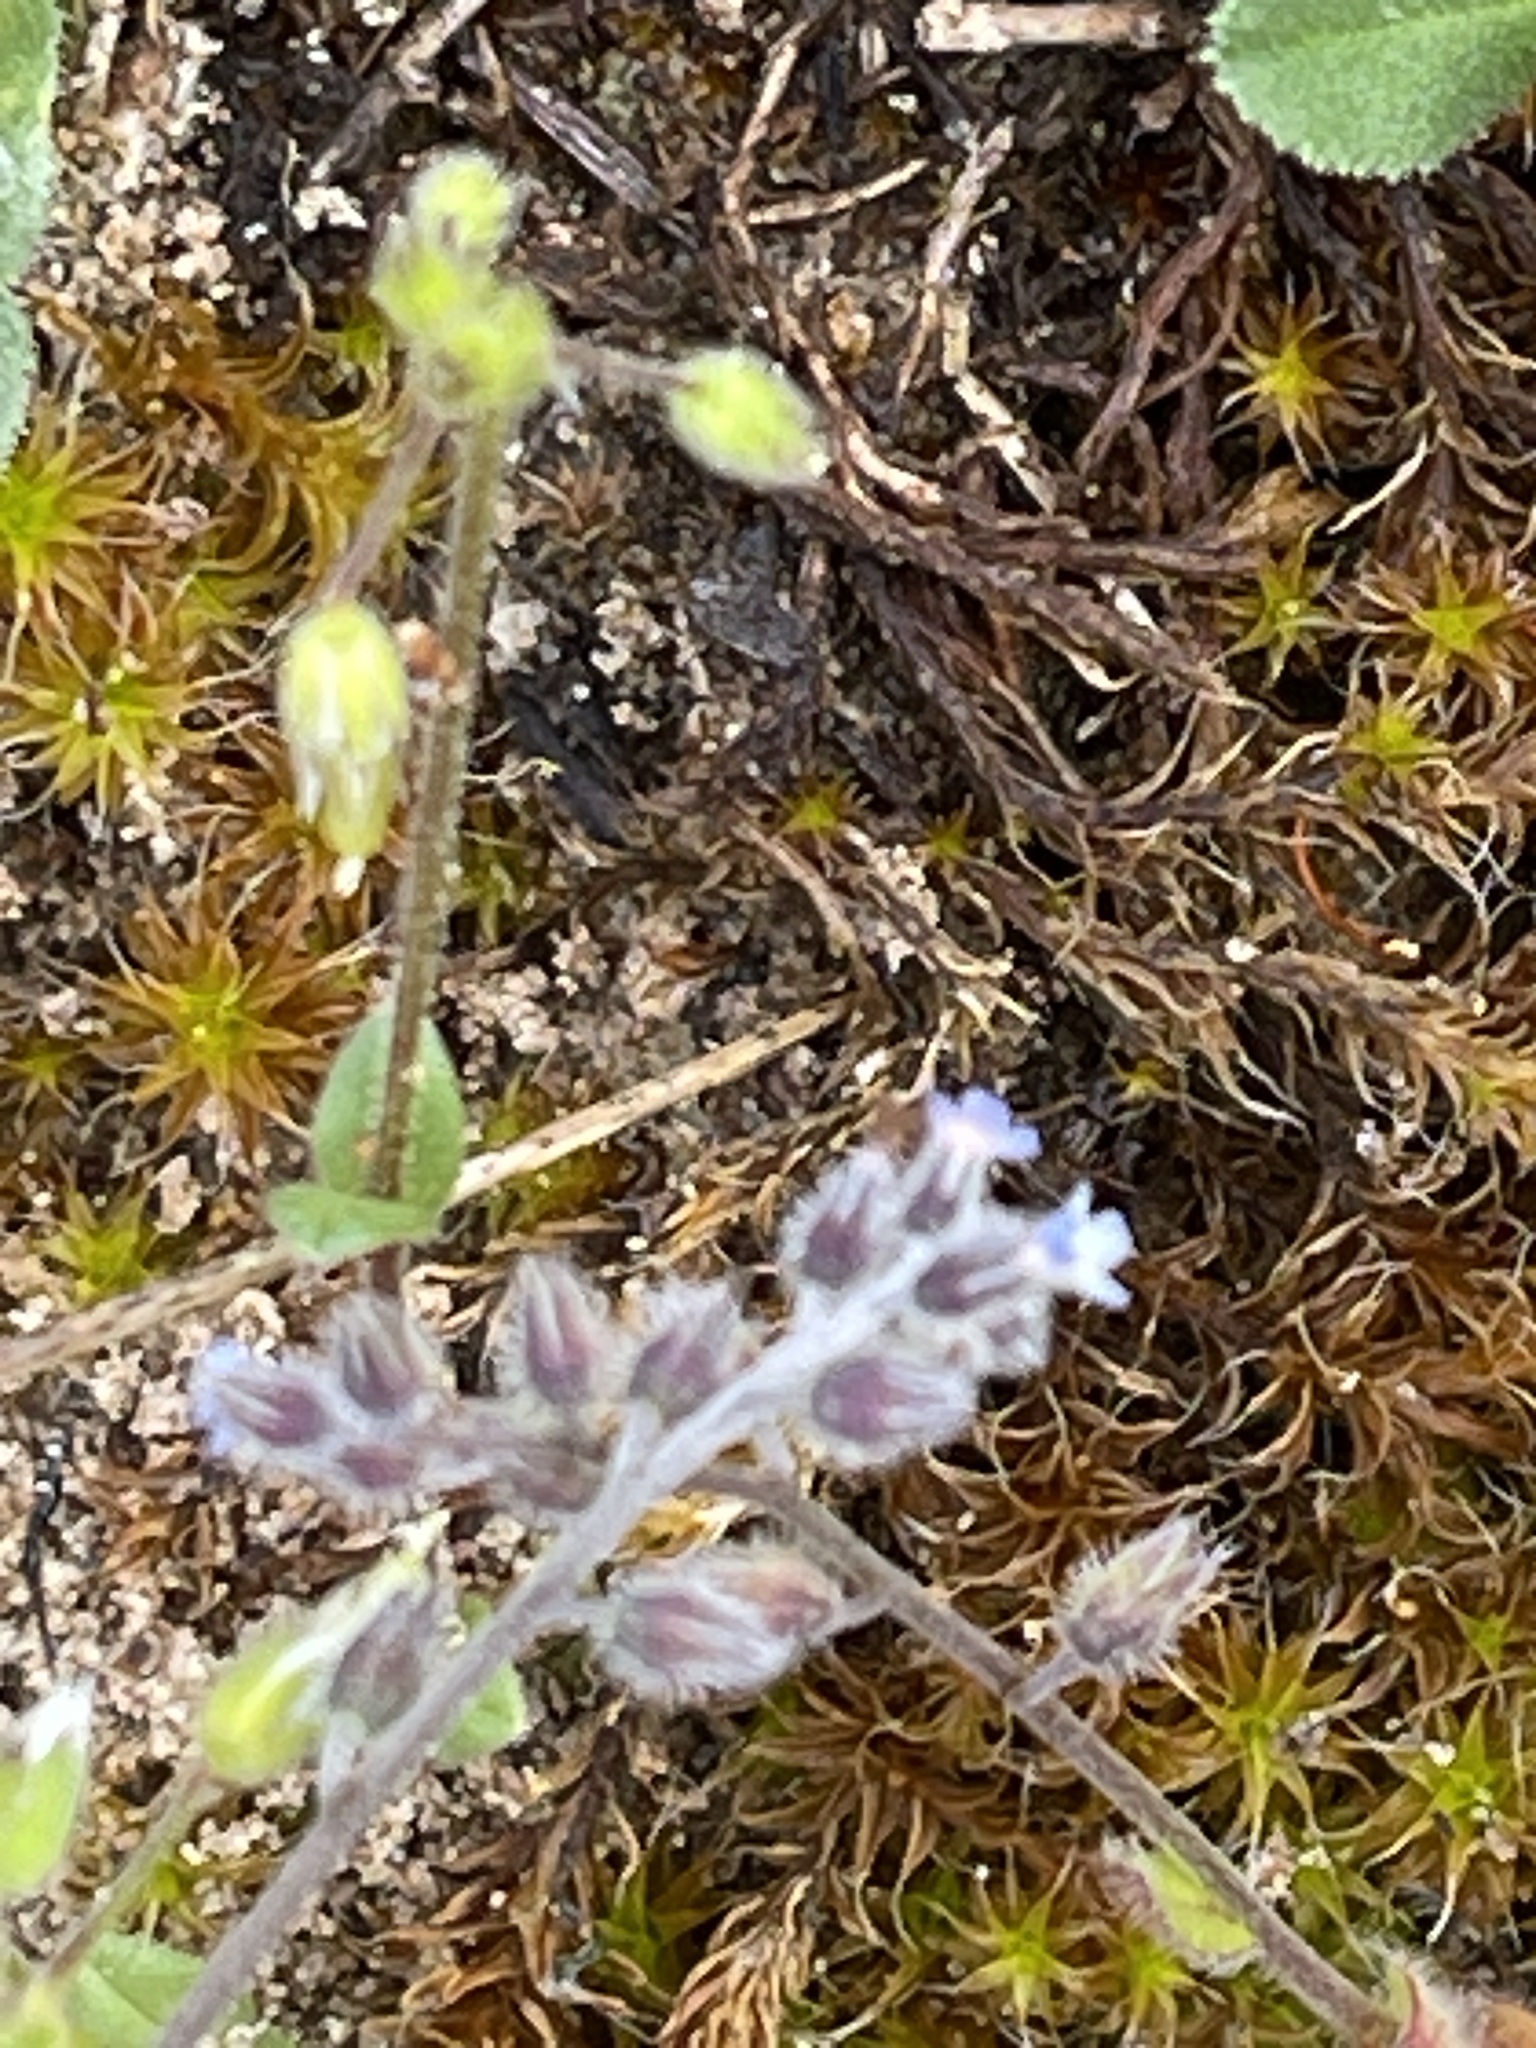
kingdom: Plantae
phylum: Tracheophyta
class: Magnoliopsida
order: Boraginales
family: Boraginaceae
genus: Myosotis
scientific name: Myosotis ramosissima
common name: Early forget-me-not
